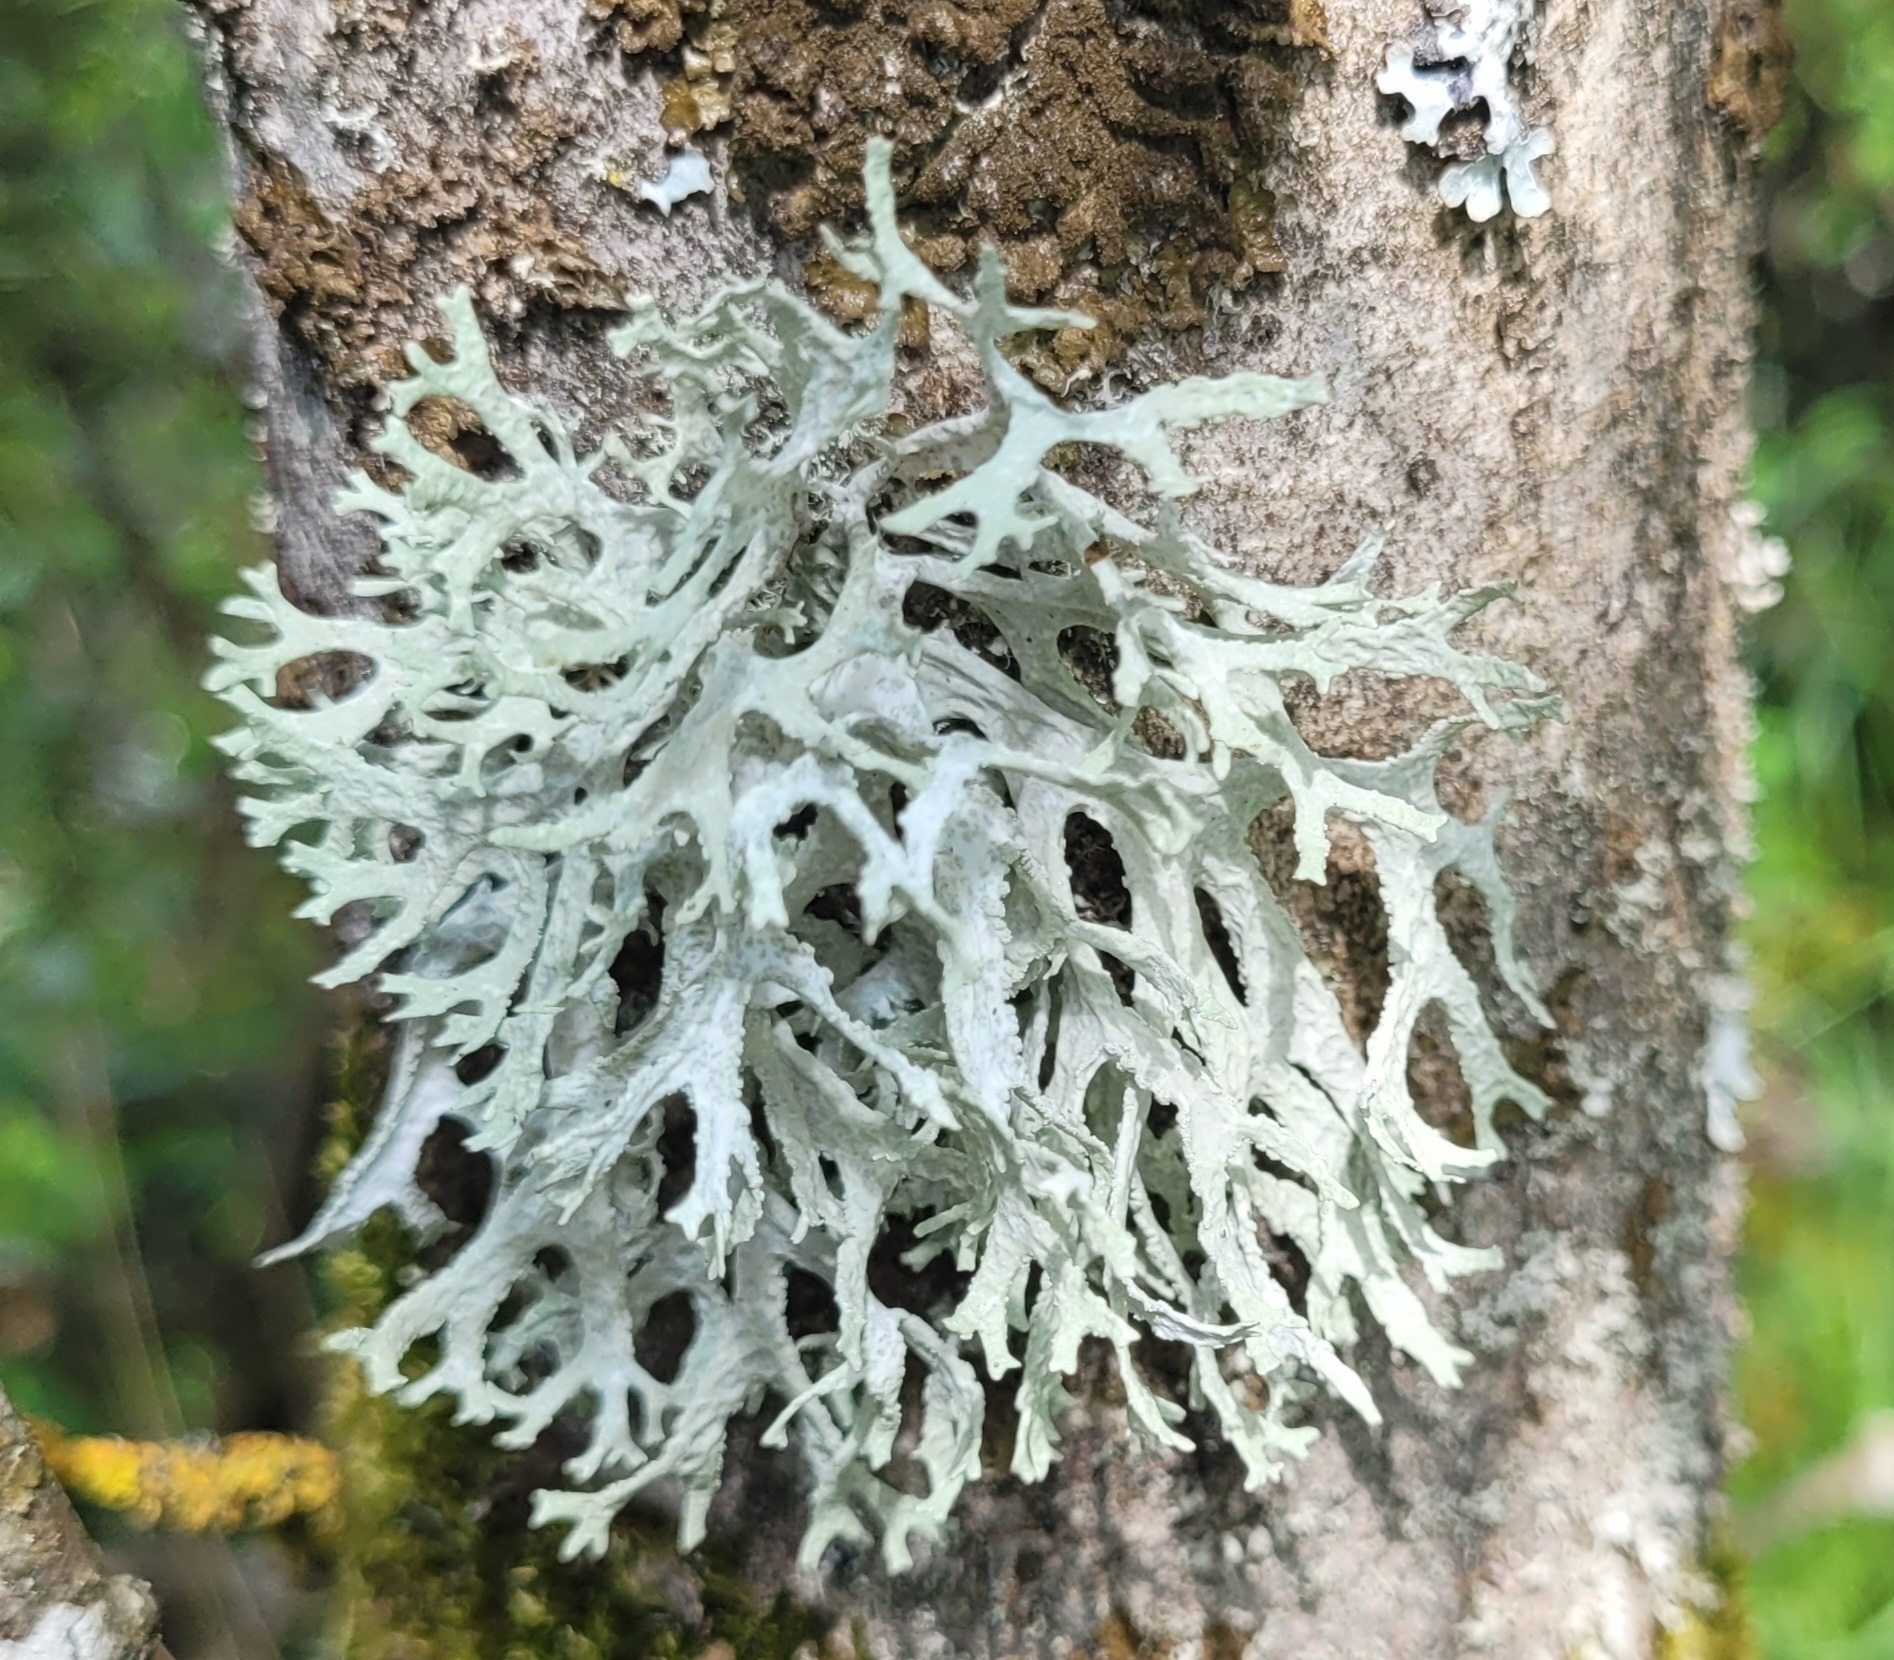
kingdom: Fungi
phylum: Ascomycota
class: Lecanoromycetes
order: Lecanorales
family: Parmeliaceae
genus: Evernia
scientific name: Evernia prunastri
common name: Oak moss
